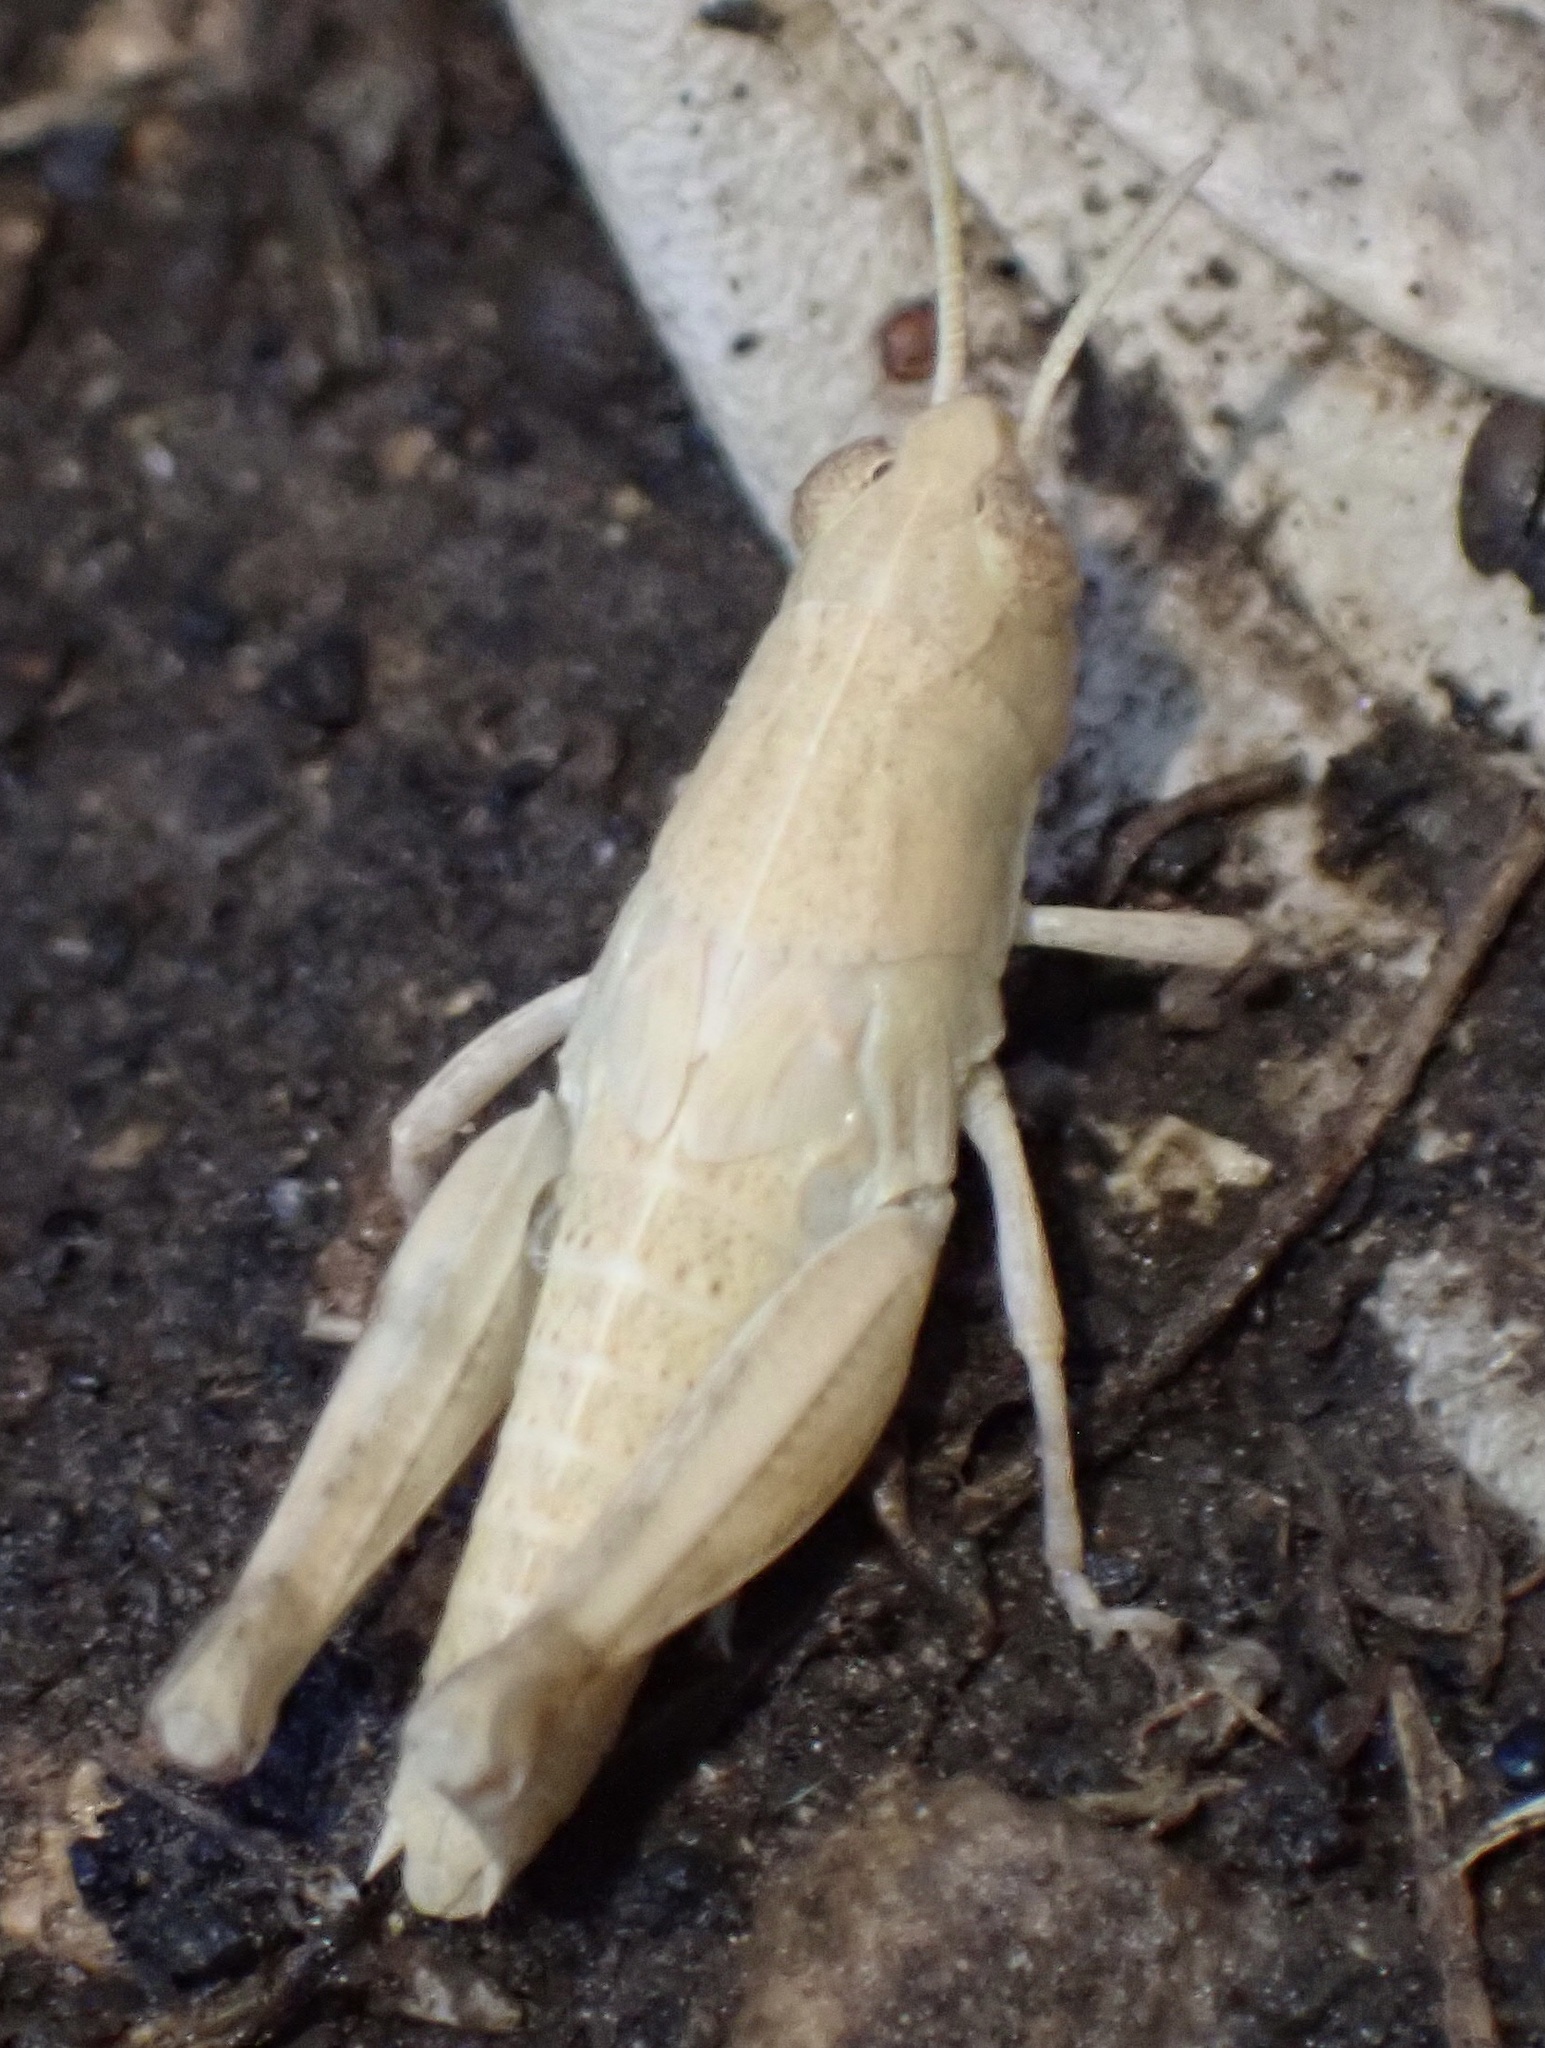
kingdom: Animalia
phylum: Arthropoda
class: Insecta
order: Orthoptera
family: Acrididae
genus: Aiolopus
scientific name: Aiolopus strepens
